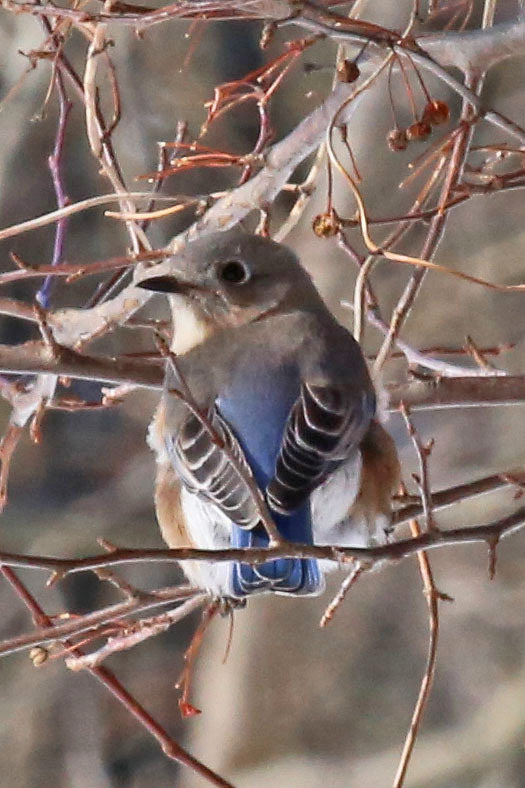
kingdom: Animalia
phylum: Chordata
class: Aves
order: Passeriformes
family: Turdidae
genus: Sialia
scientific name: Sialia sialis
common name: Eastern bluebird
